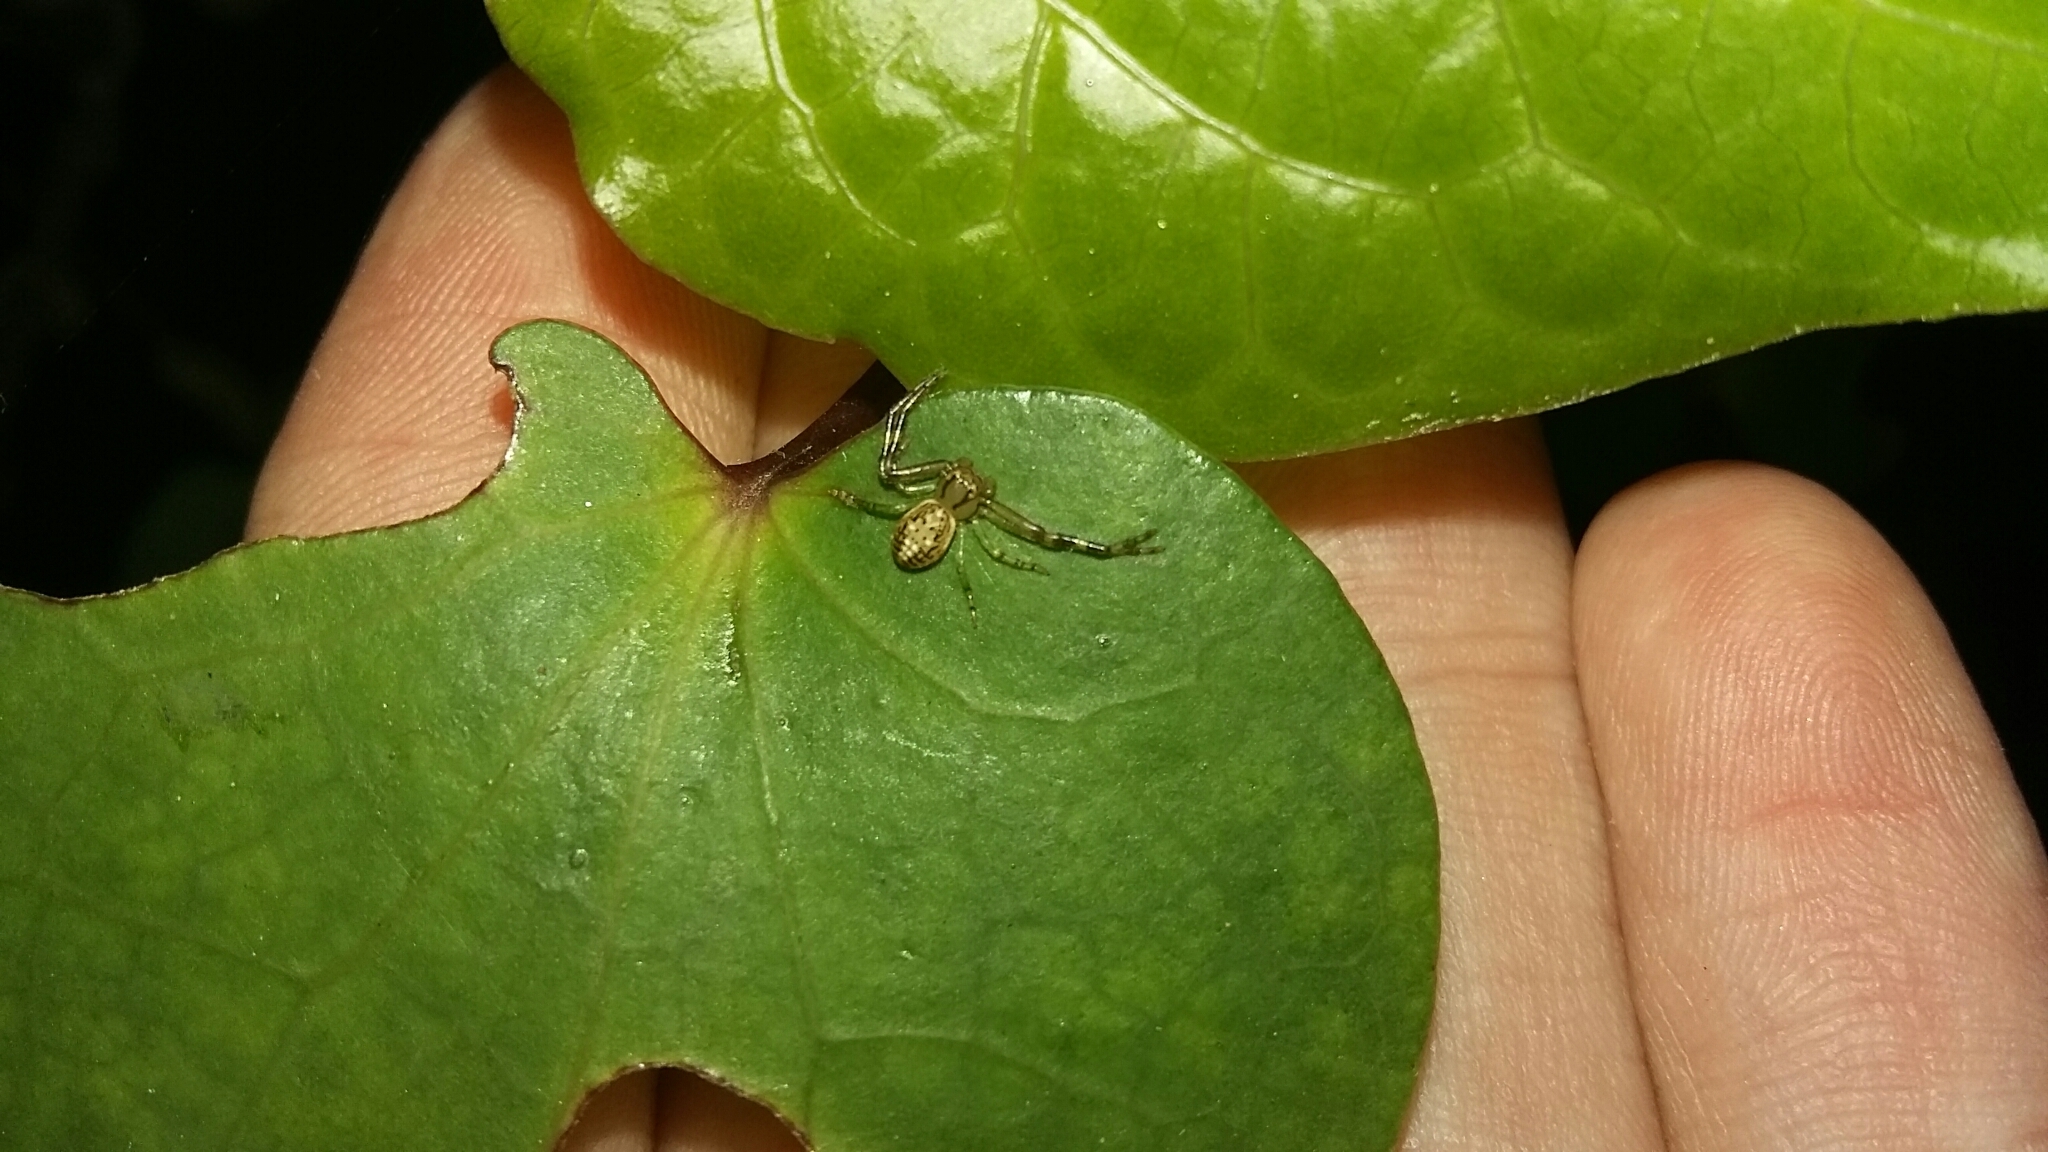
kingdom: Animalia
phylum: Arthropoda
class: Arachnida
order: Araneae
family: Thomisidae
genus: Diaea
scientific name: Diaea ambara
